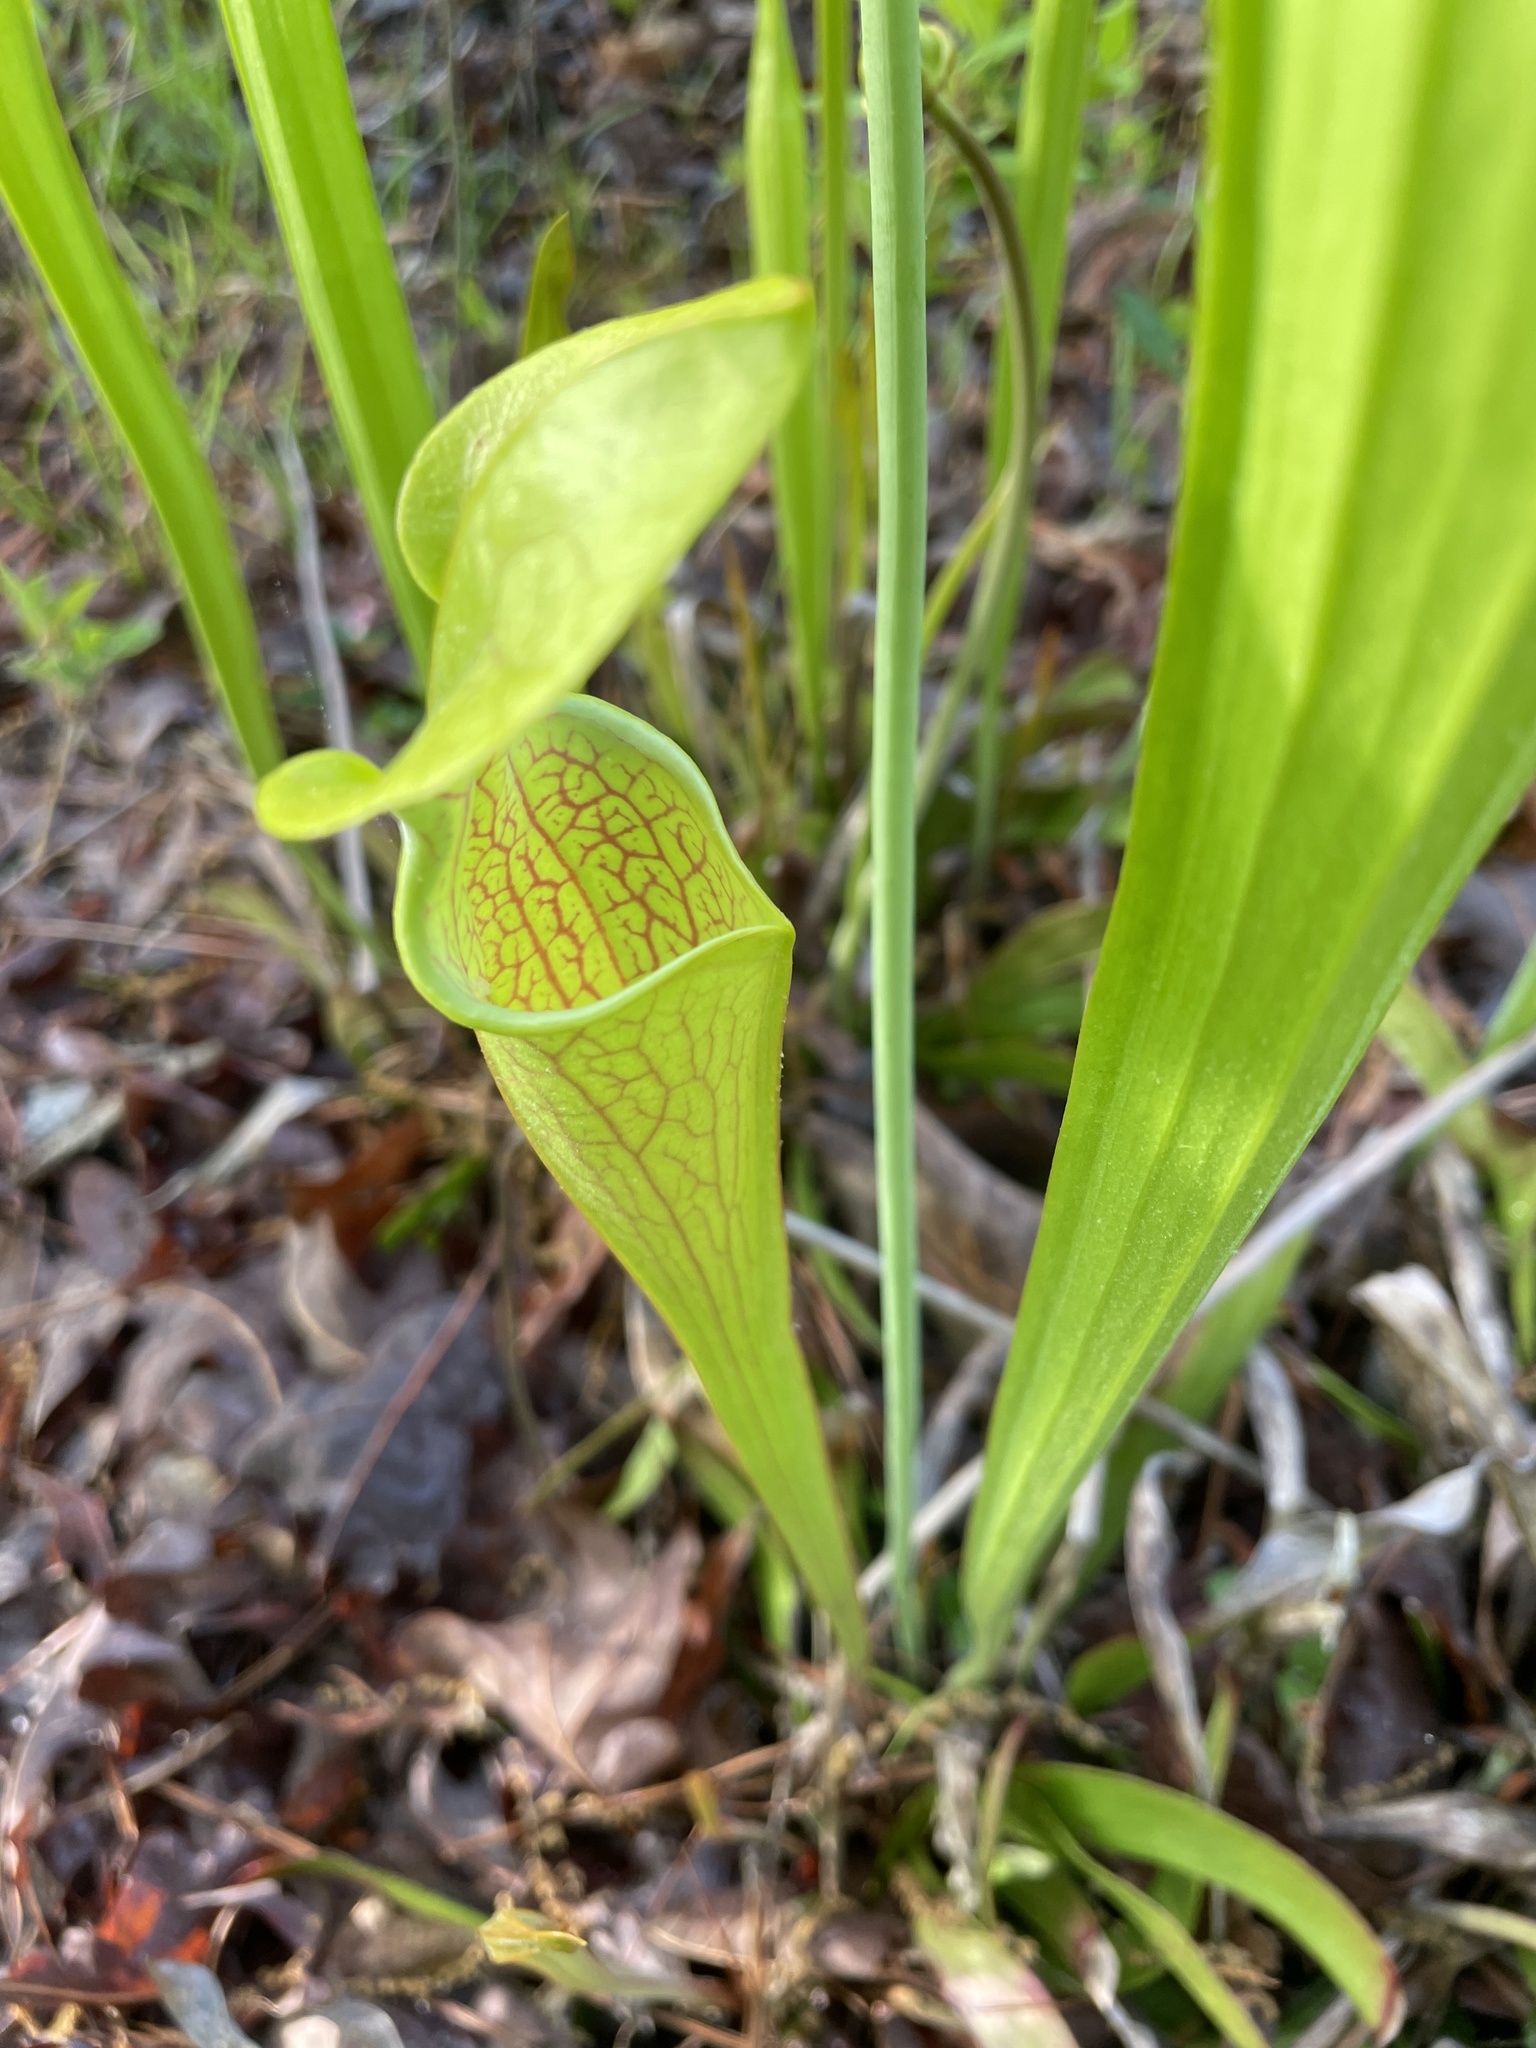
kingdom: Plantae
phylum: Tracheophyta
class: Magnoliopsida
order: Ericales
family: Sarraceniaceae
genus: Sarracenia
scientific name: Sarracenia oreophila
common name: Green pitcherplant
